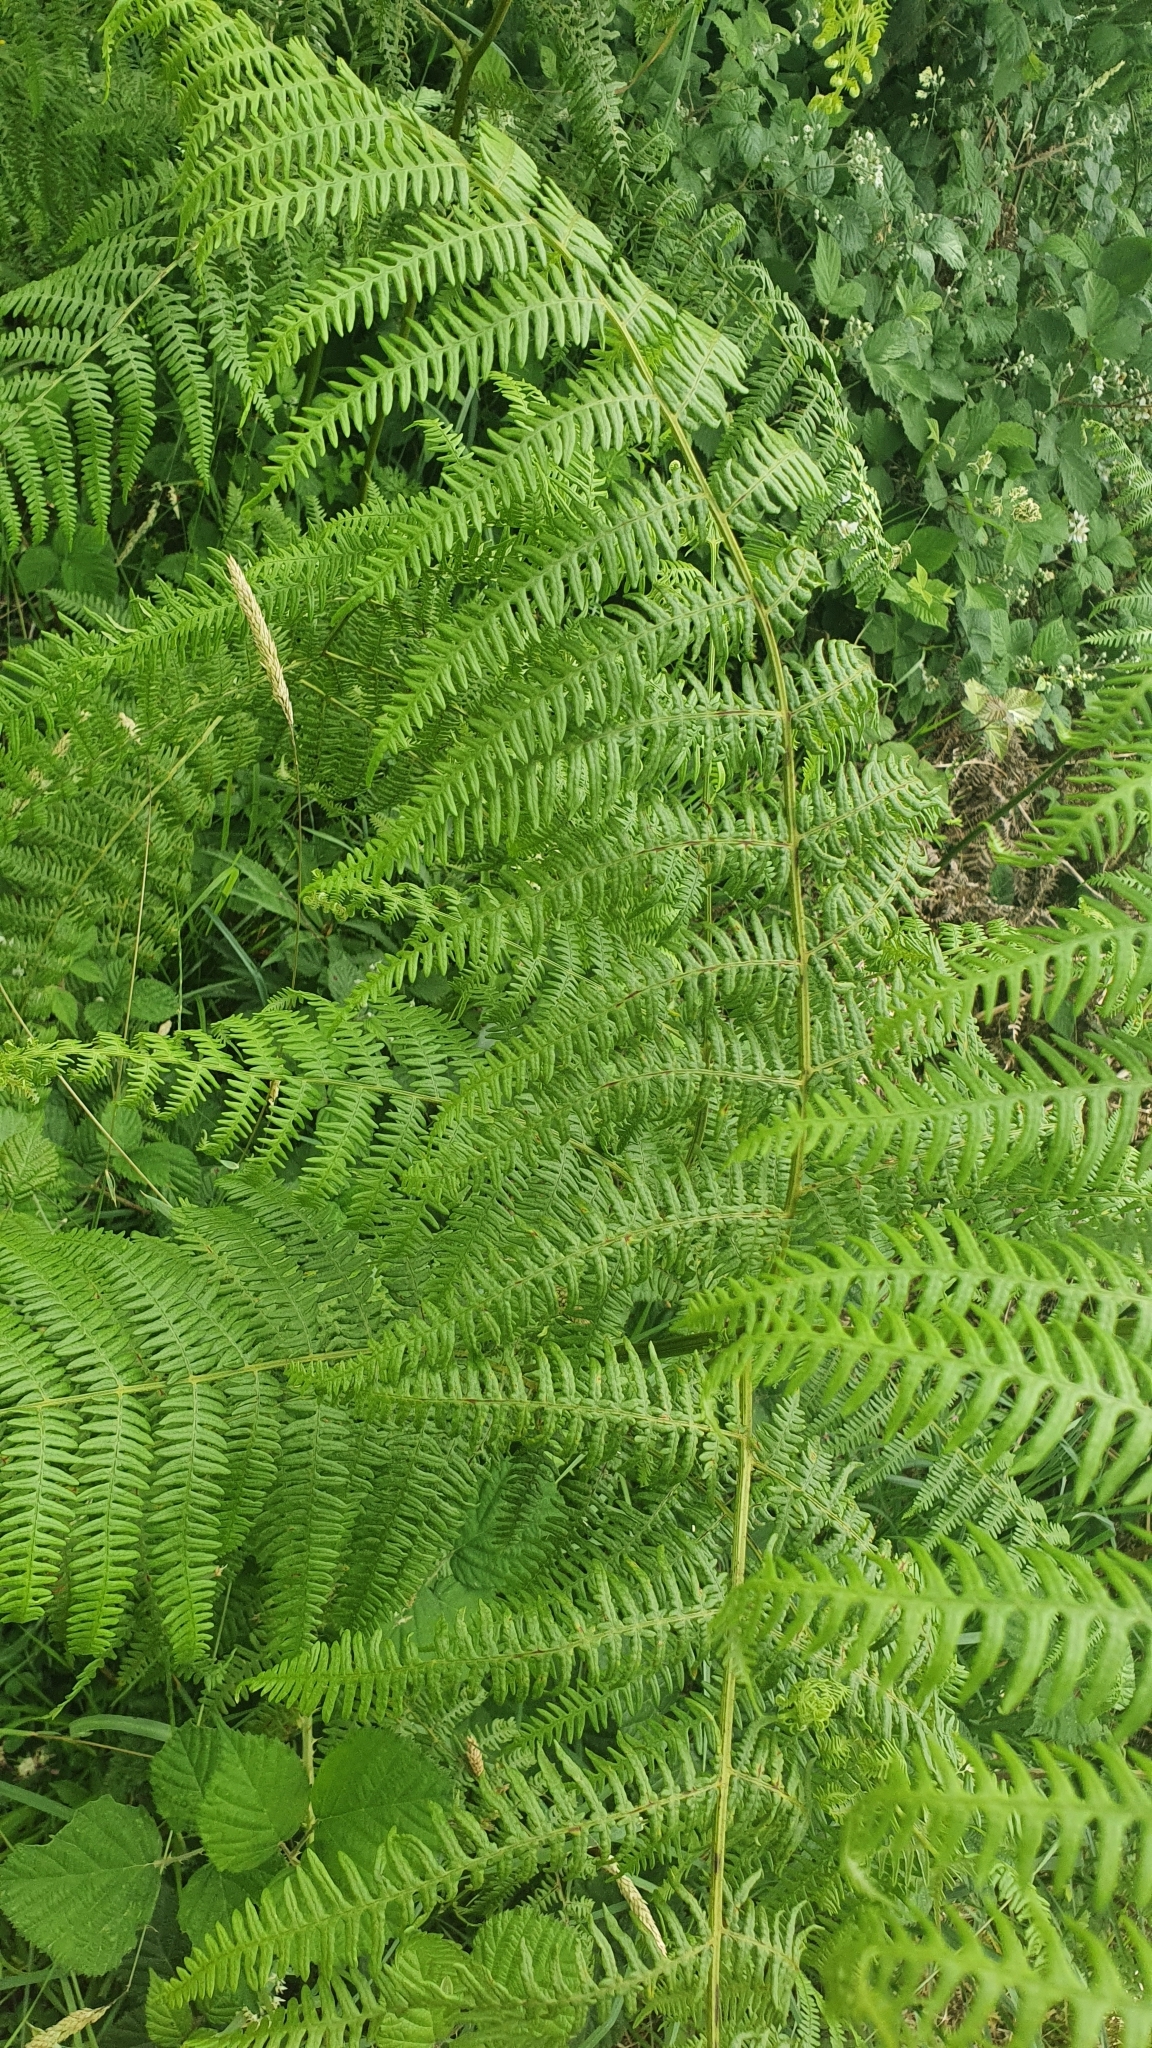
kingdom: Plantae
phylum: Tracheophyta
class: Polypodiopsida
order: Polypodiales
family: Dennstaedtiaceae
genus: Pteridium
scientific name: Pteridium aquilinum
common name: Bracken
